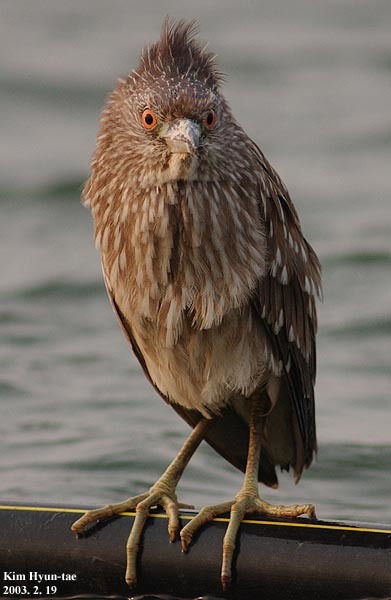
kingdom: Animalia
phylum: Chordata
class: Aves
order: Pelecaniformes
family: Ardeidae
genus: Nycticorax
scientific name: Nycticorax nycticorax
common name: Black-crowned night heron
